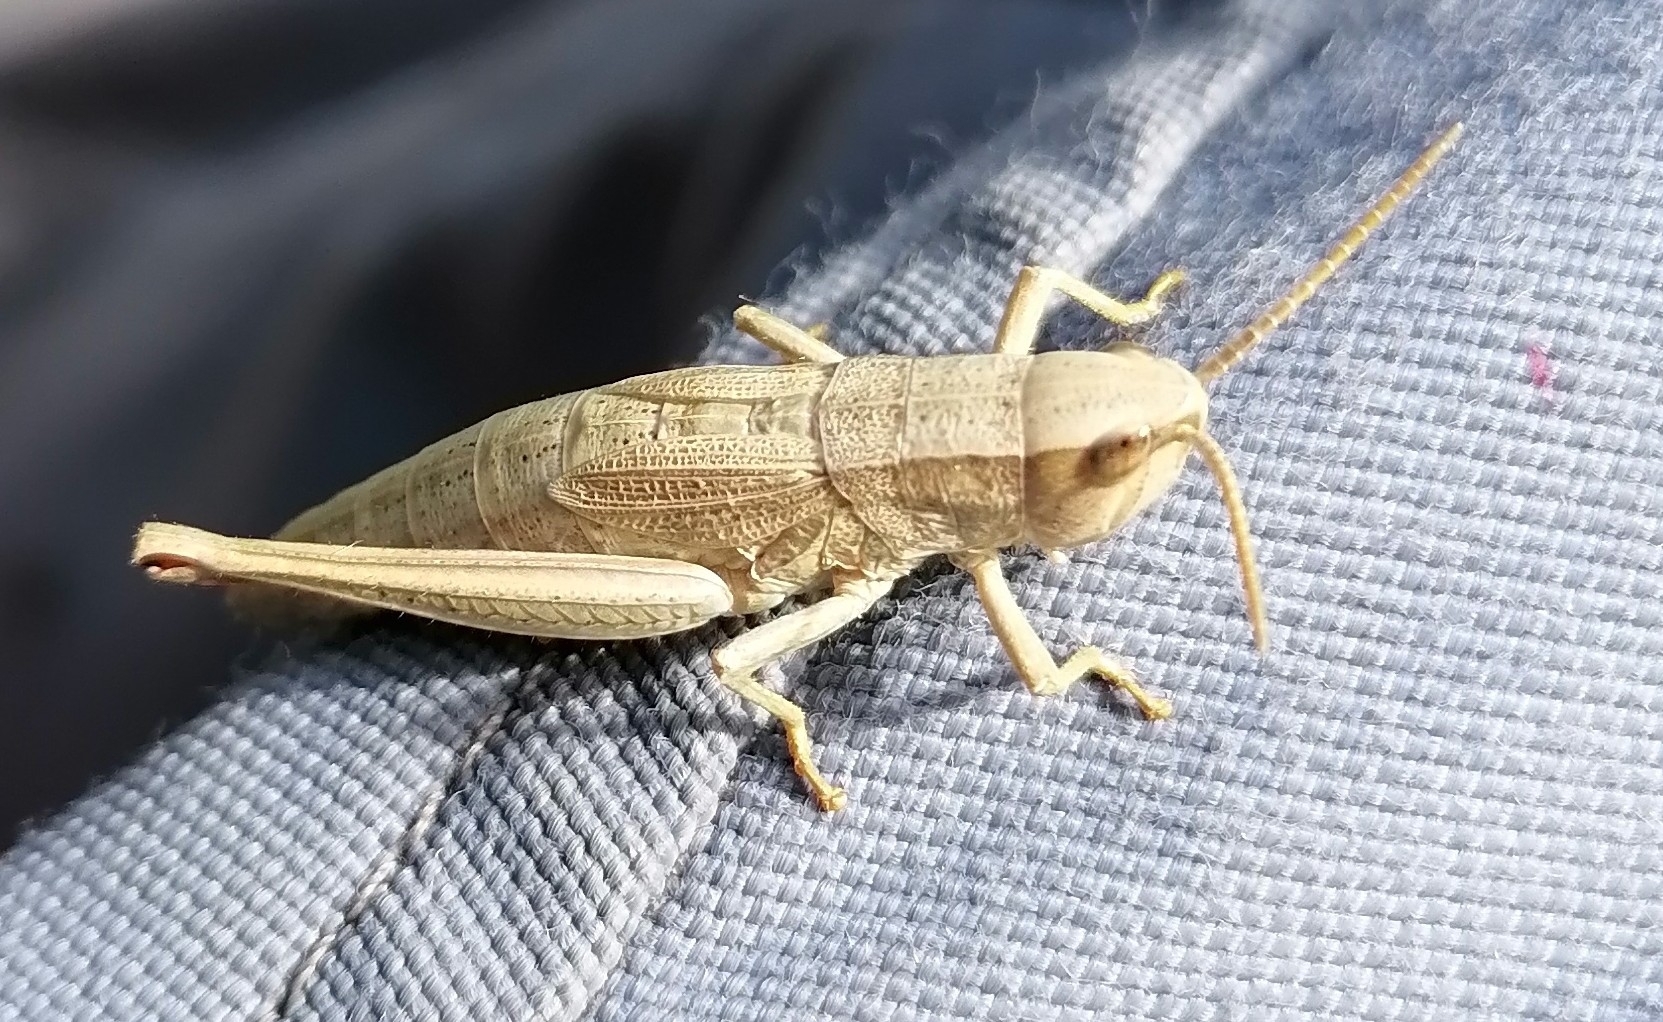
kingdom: Animalia
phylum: Arthropoda
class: Insecta
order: Orthoptera
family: Acrididae
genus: Chrysochraon
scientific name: Chrysochraon dispar
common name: Large gold grasshopper
